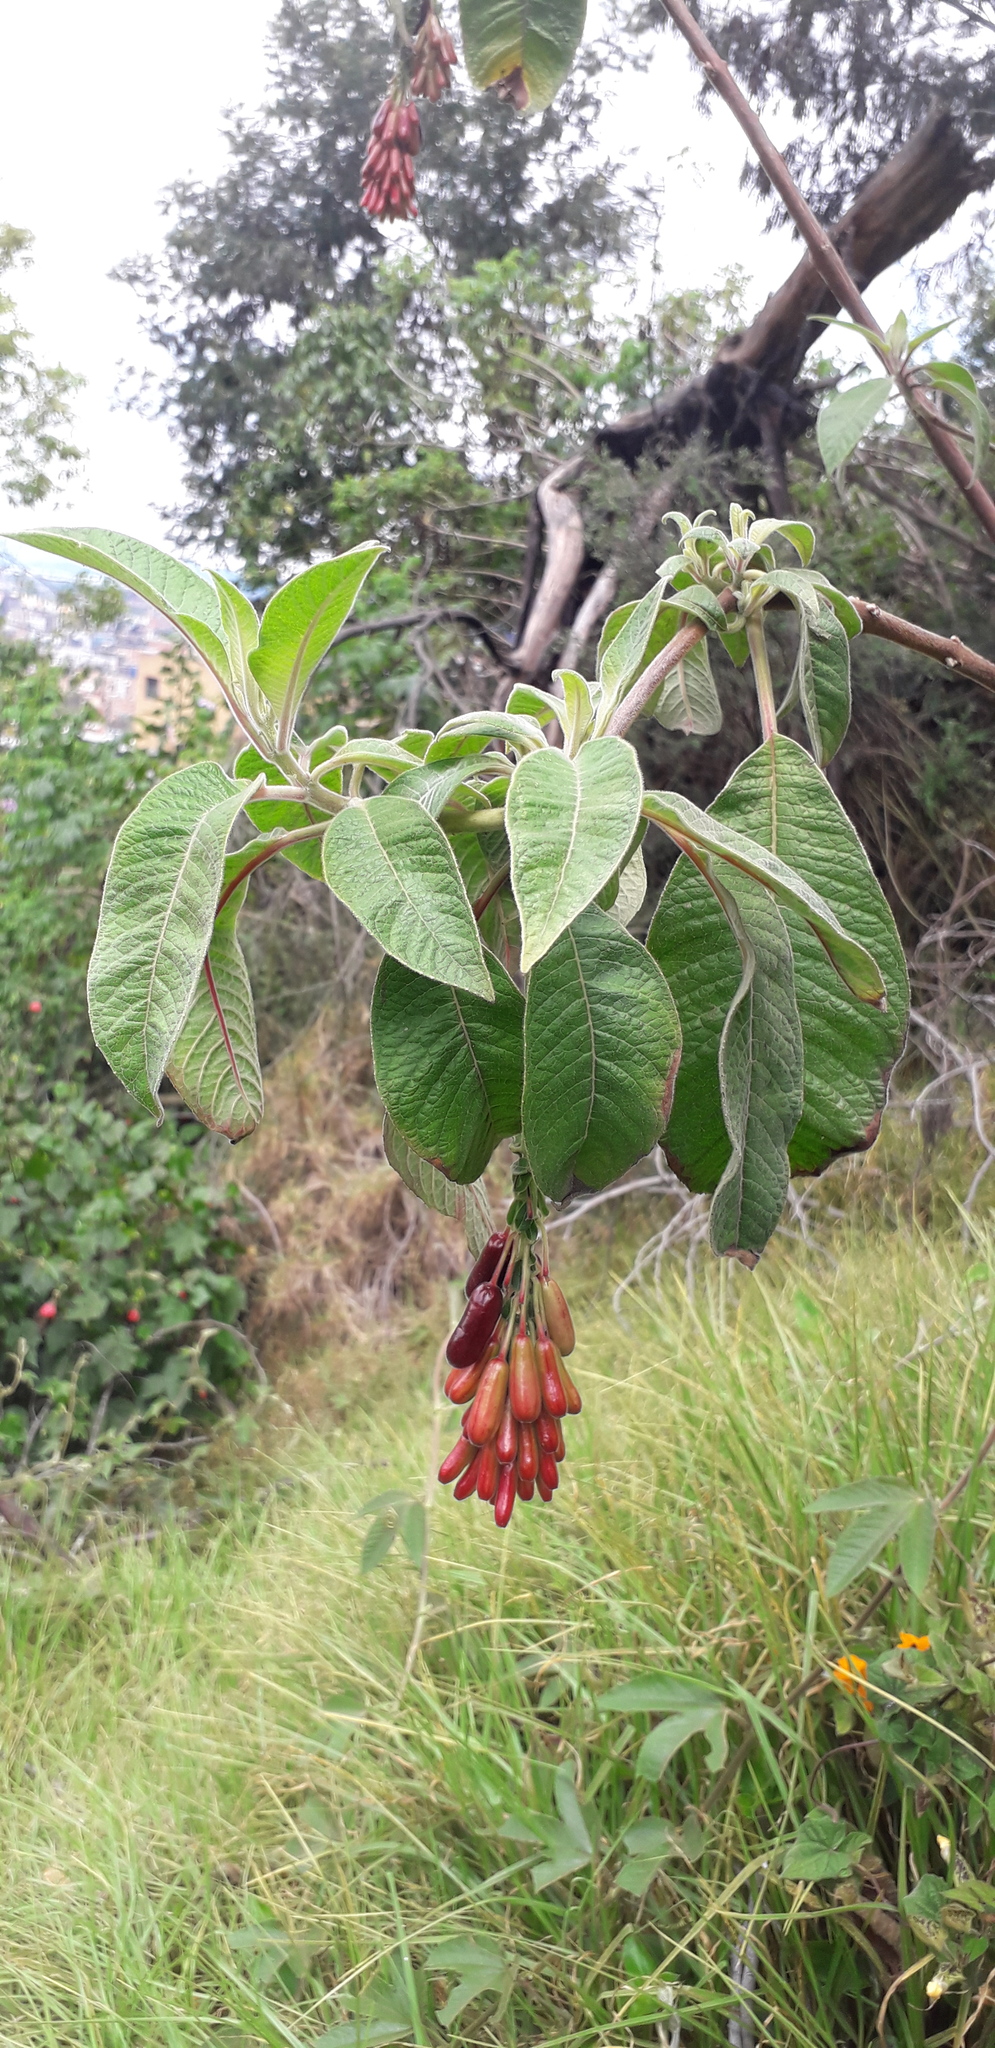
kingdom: Plantae
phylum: Tracheophyta
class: Magnoliopsida
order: Myrtales
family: Onagraceae
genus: Fuchsia
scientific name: Fuchsia boliviana
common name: Bolivian fuchsia
